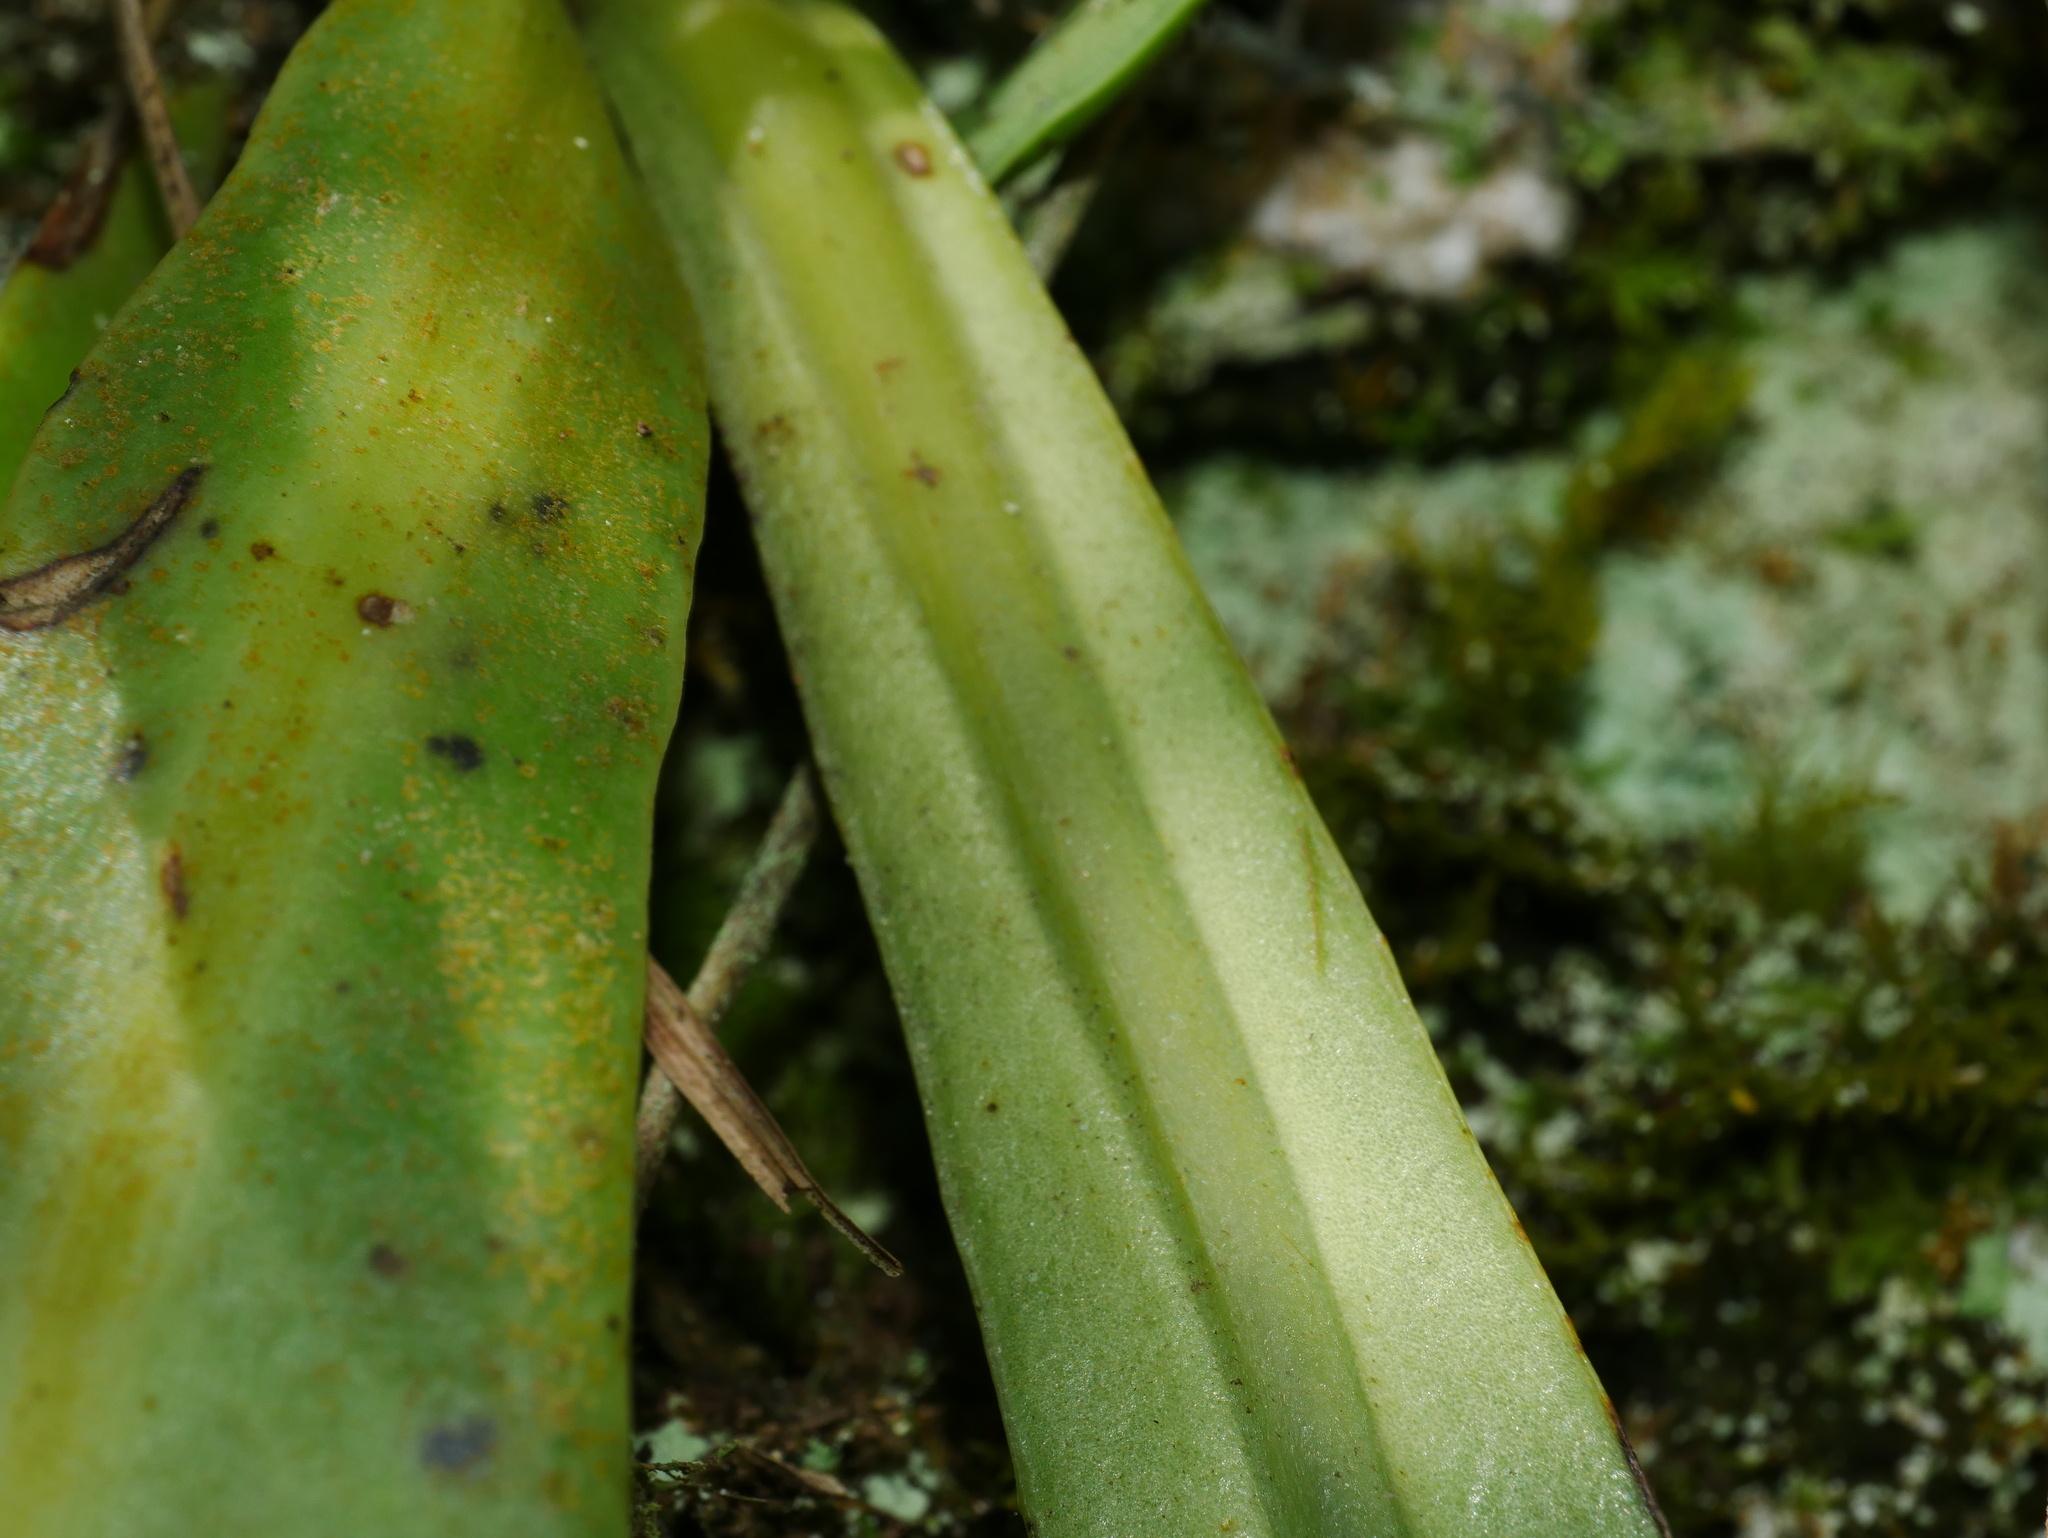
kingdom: Plantae
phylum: Tracheophyta
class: Polypodiopsida
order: Polypodiales
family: Polypodiaceae
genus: Microsorum
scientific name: Microsorum steerei
